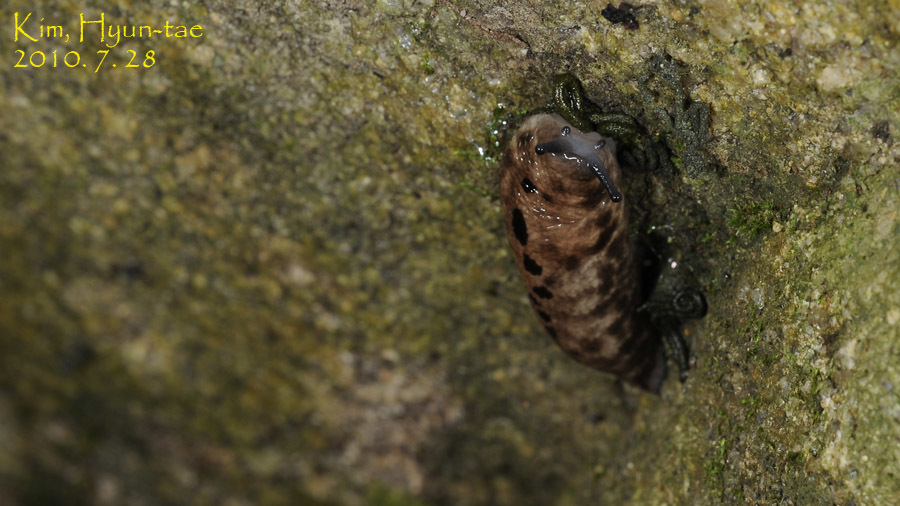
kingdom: Animalia
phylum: Mollusca
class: Gastropoda
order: Stylommatophora
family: Philomycidae
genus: Meghimatium
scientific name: Meghimatium fruhstorferi
